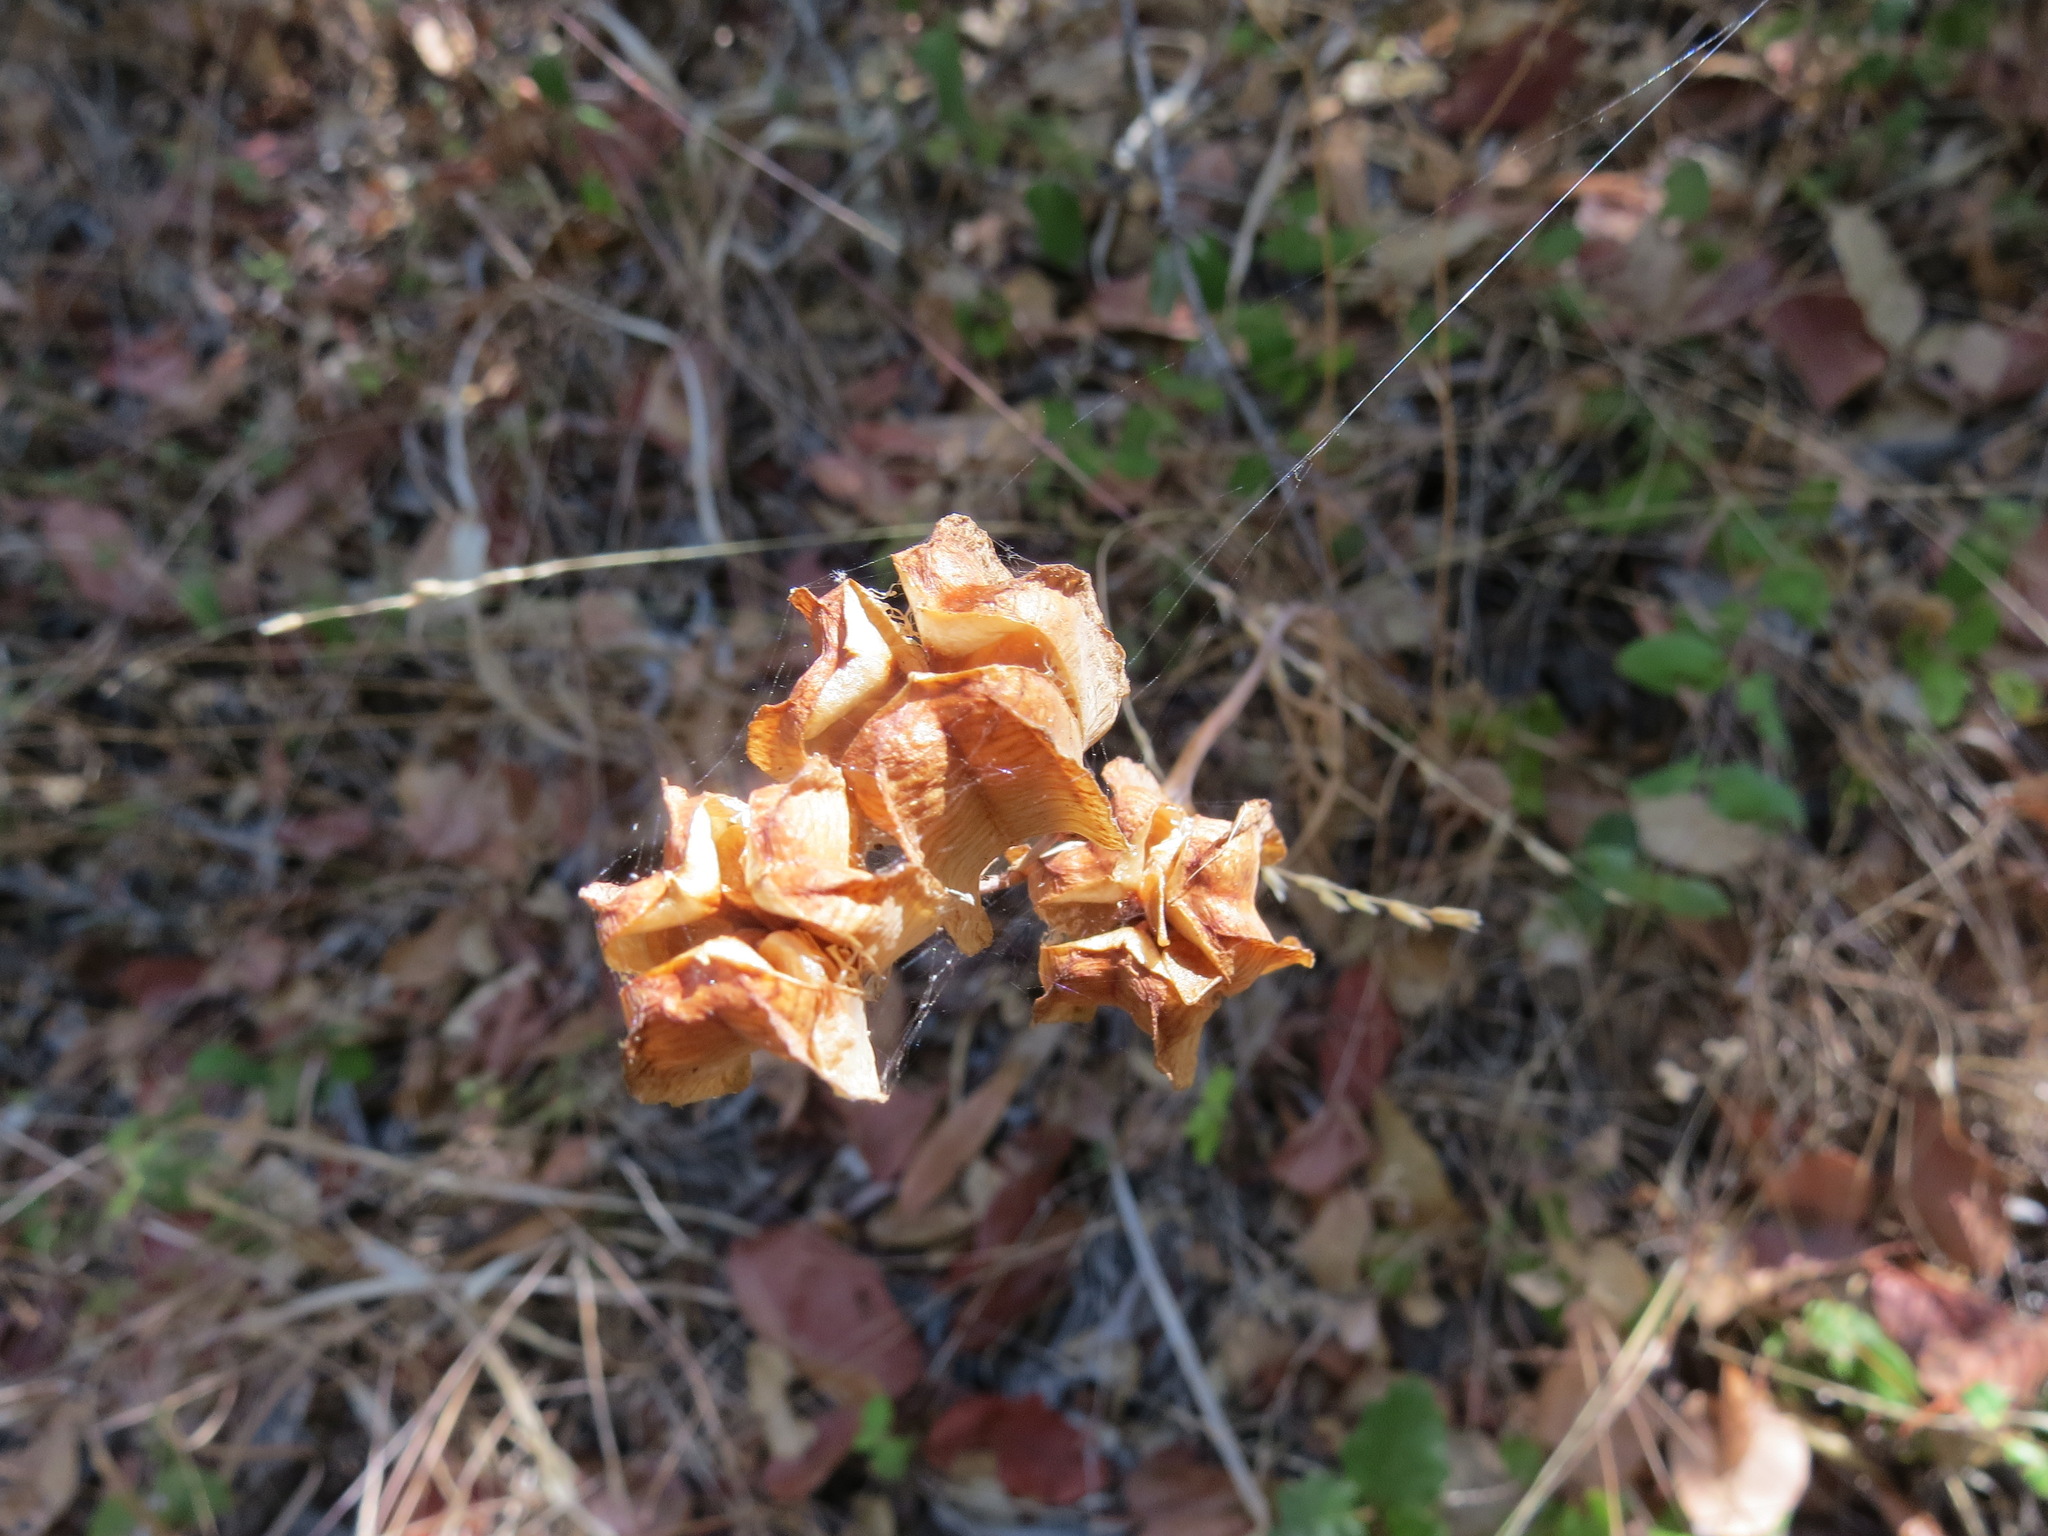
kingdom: Plantae
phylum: Tracheophyta
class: Liliopsida
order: Liliales
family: Liliaceae
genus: Fritillaria
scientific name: Fritillaria affinis
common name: Ojai fritillary
